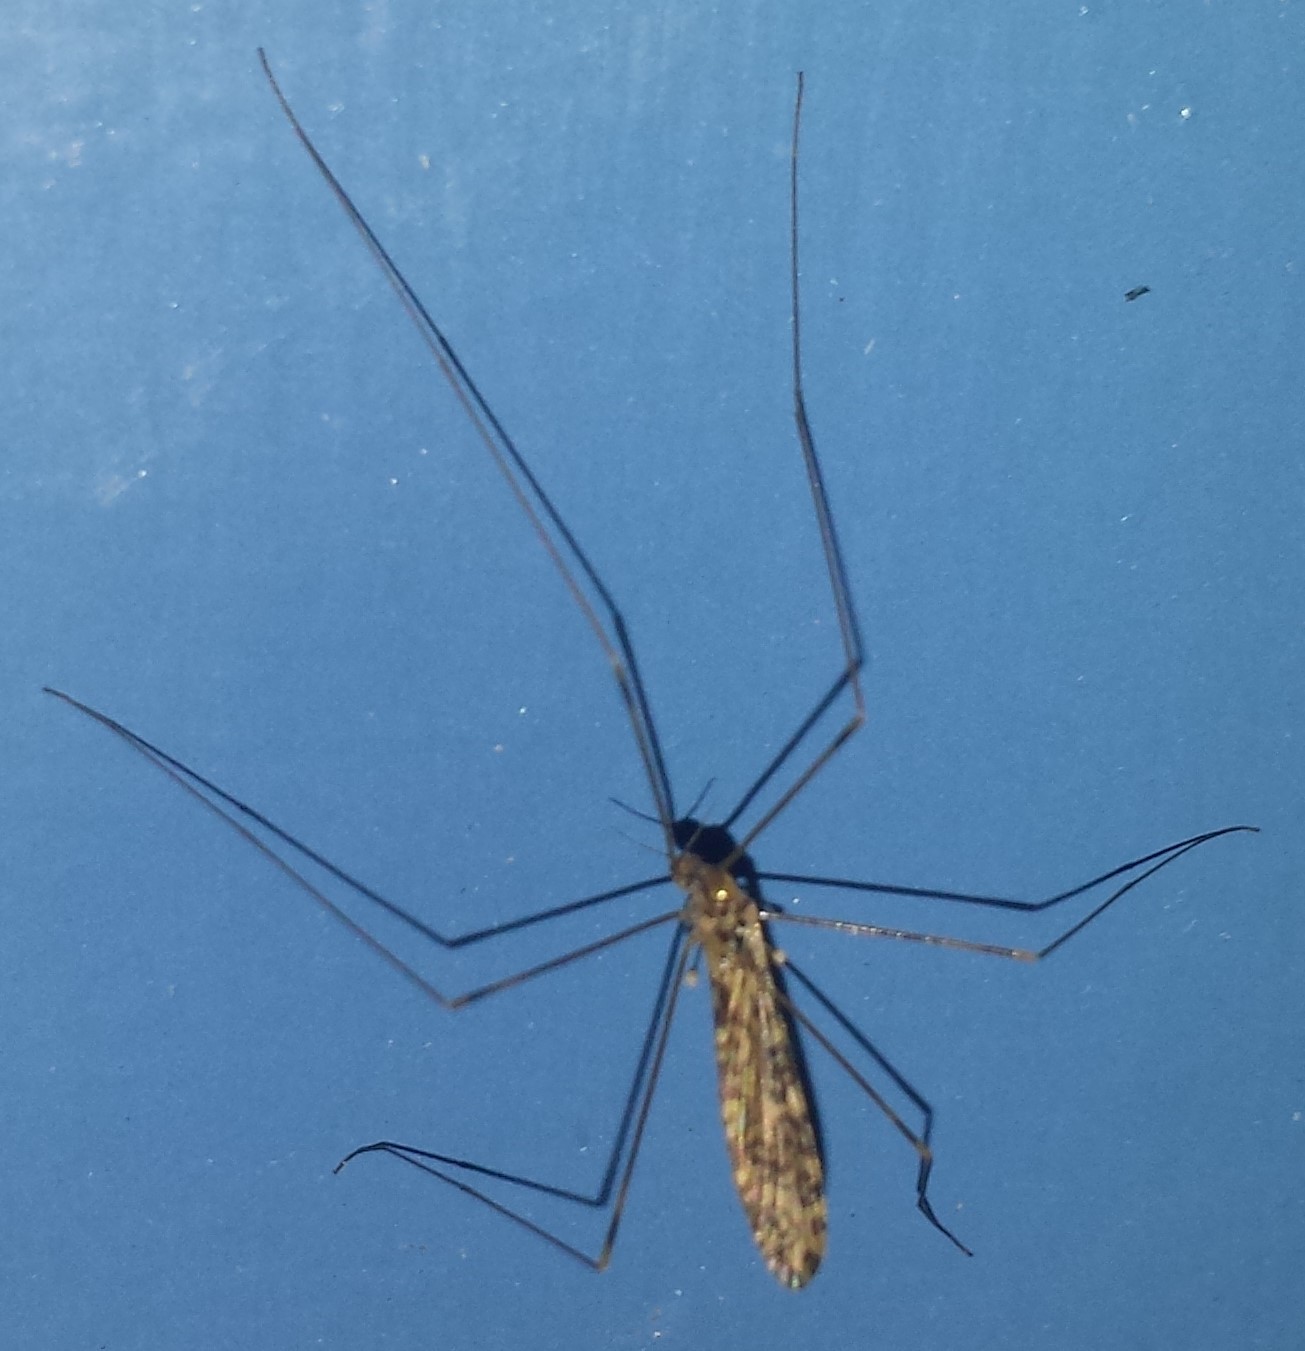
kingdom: Animalia
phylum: Arthropoda
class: Insecta
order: Diptera
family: Limoniidae
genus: Limonia
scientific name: Limonia annulata
